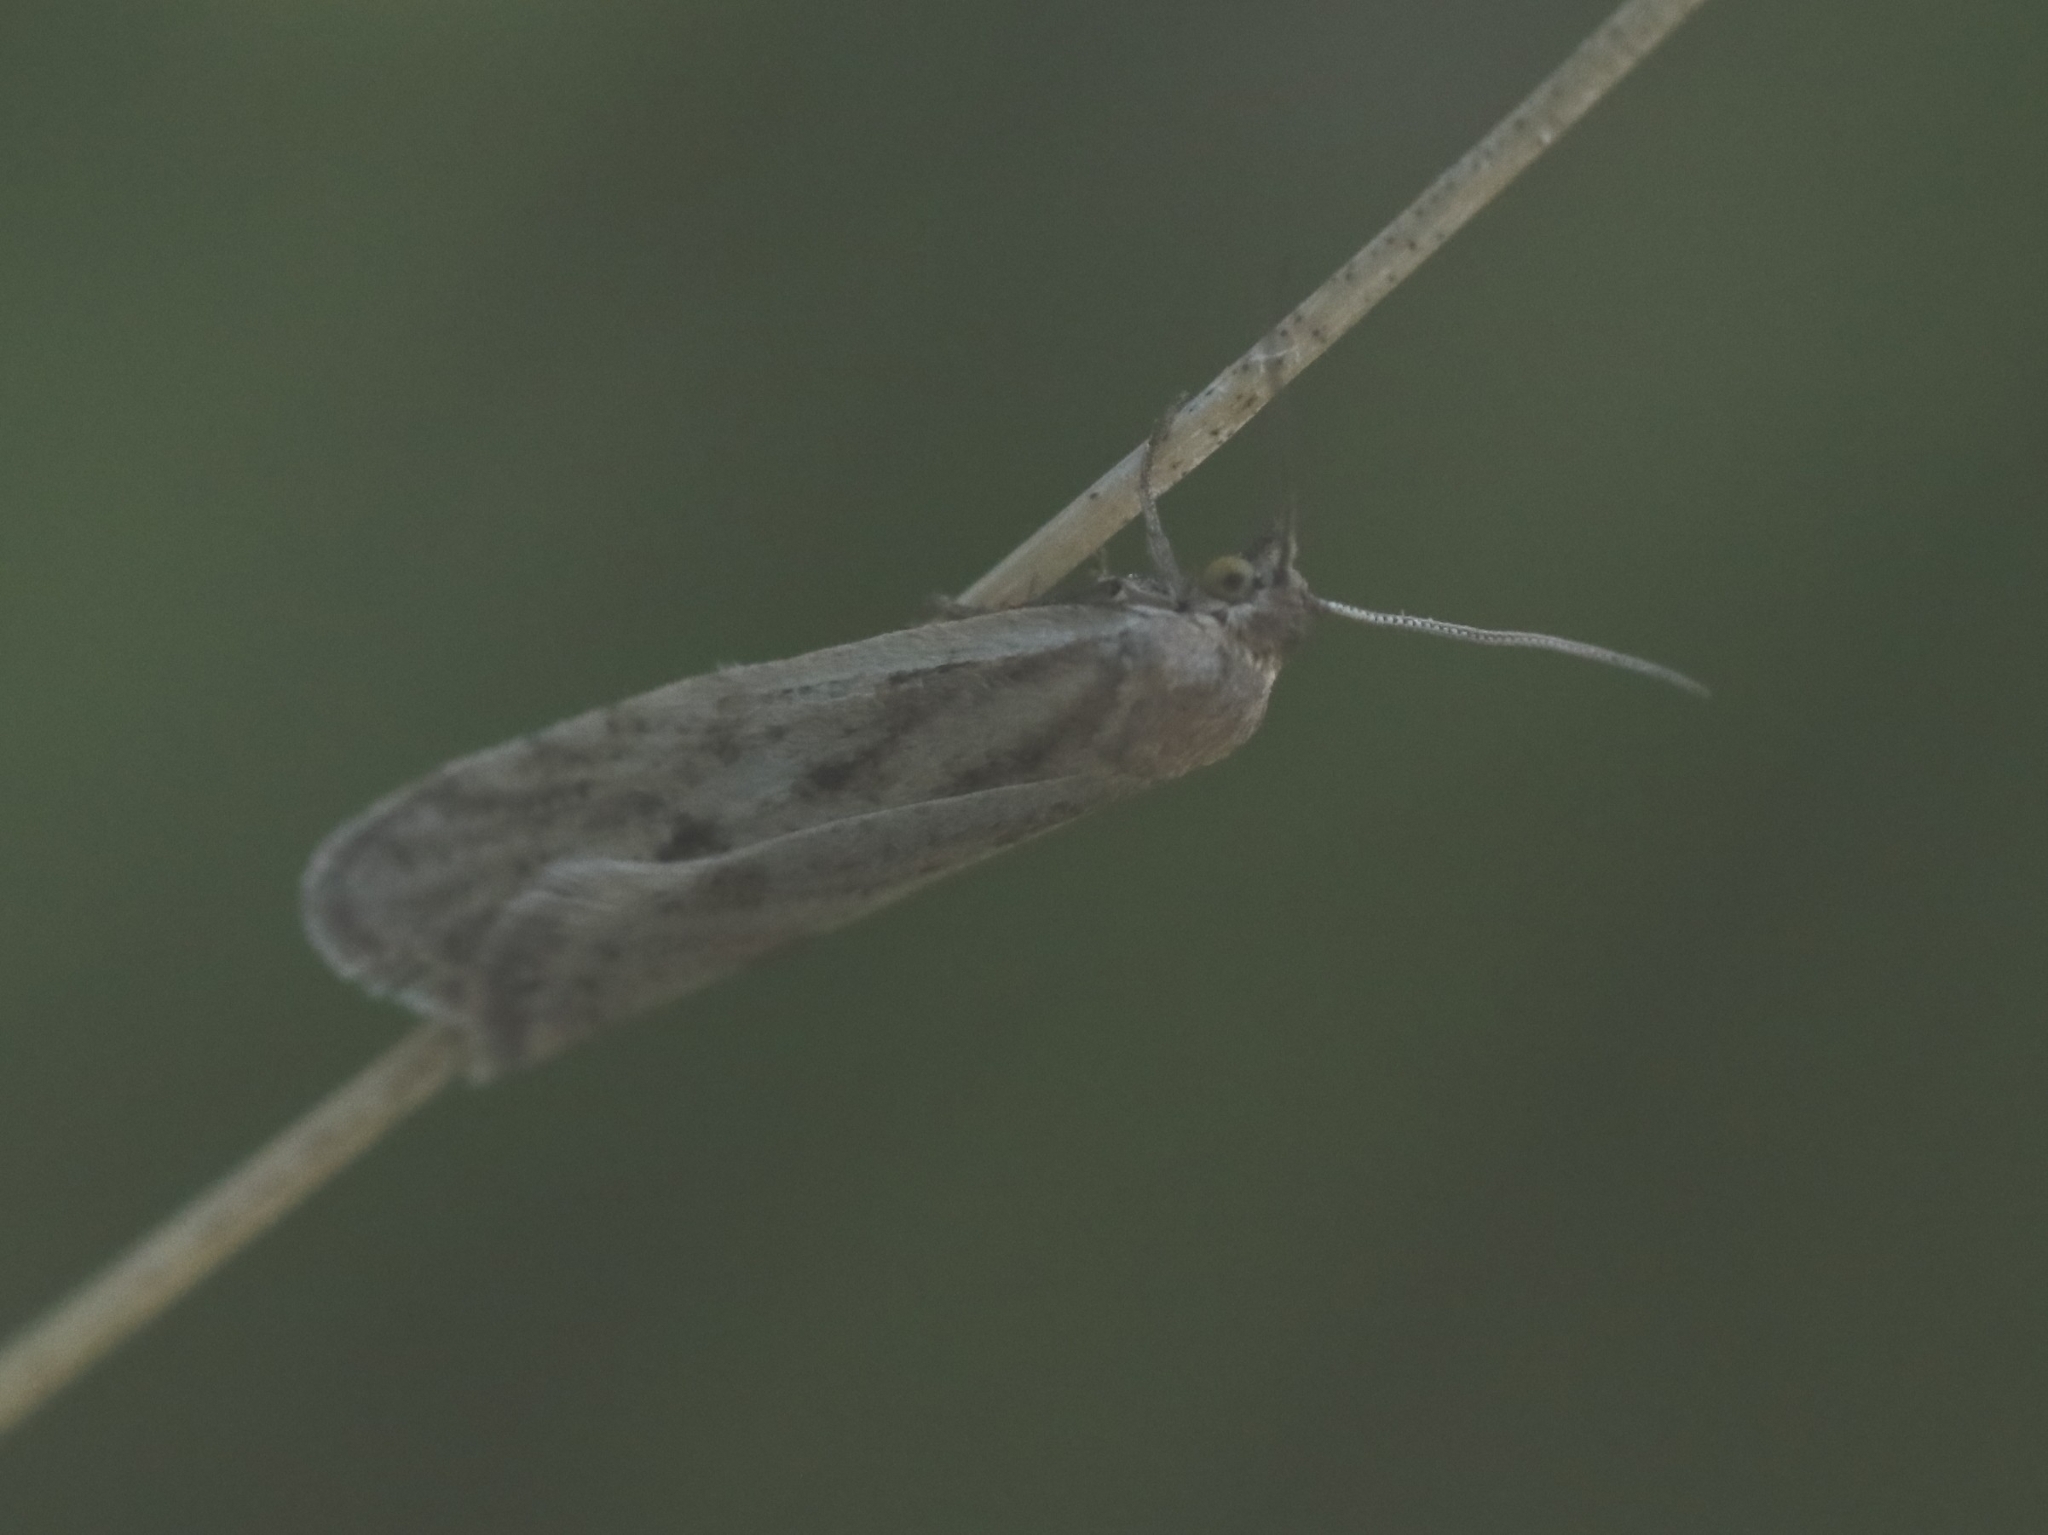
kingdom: Animalia
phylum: Arthropoda
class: Insecta
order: Lepidoptera
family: Tortricidae
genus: Eana
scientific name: Eana osseana
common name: Dotted shade
